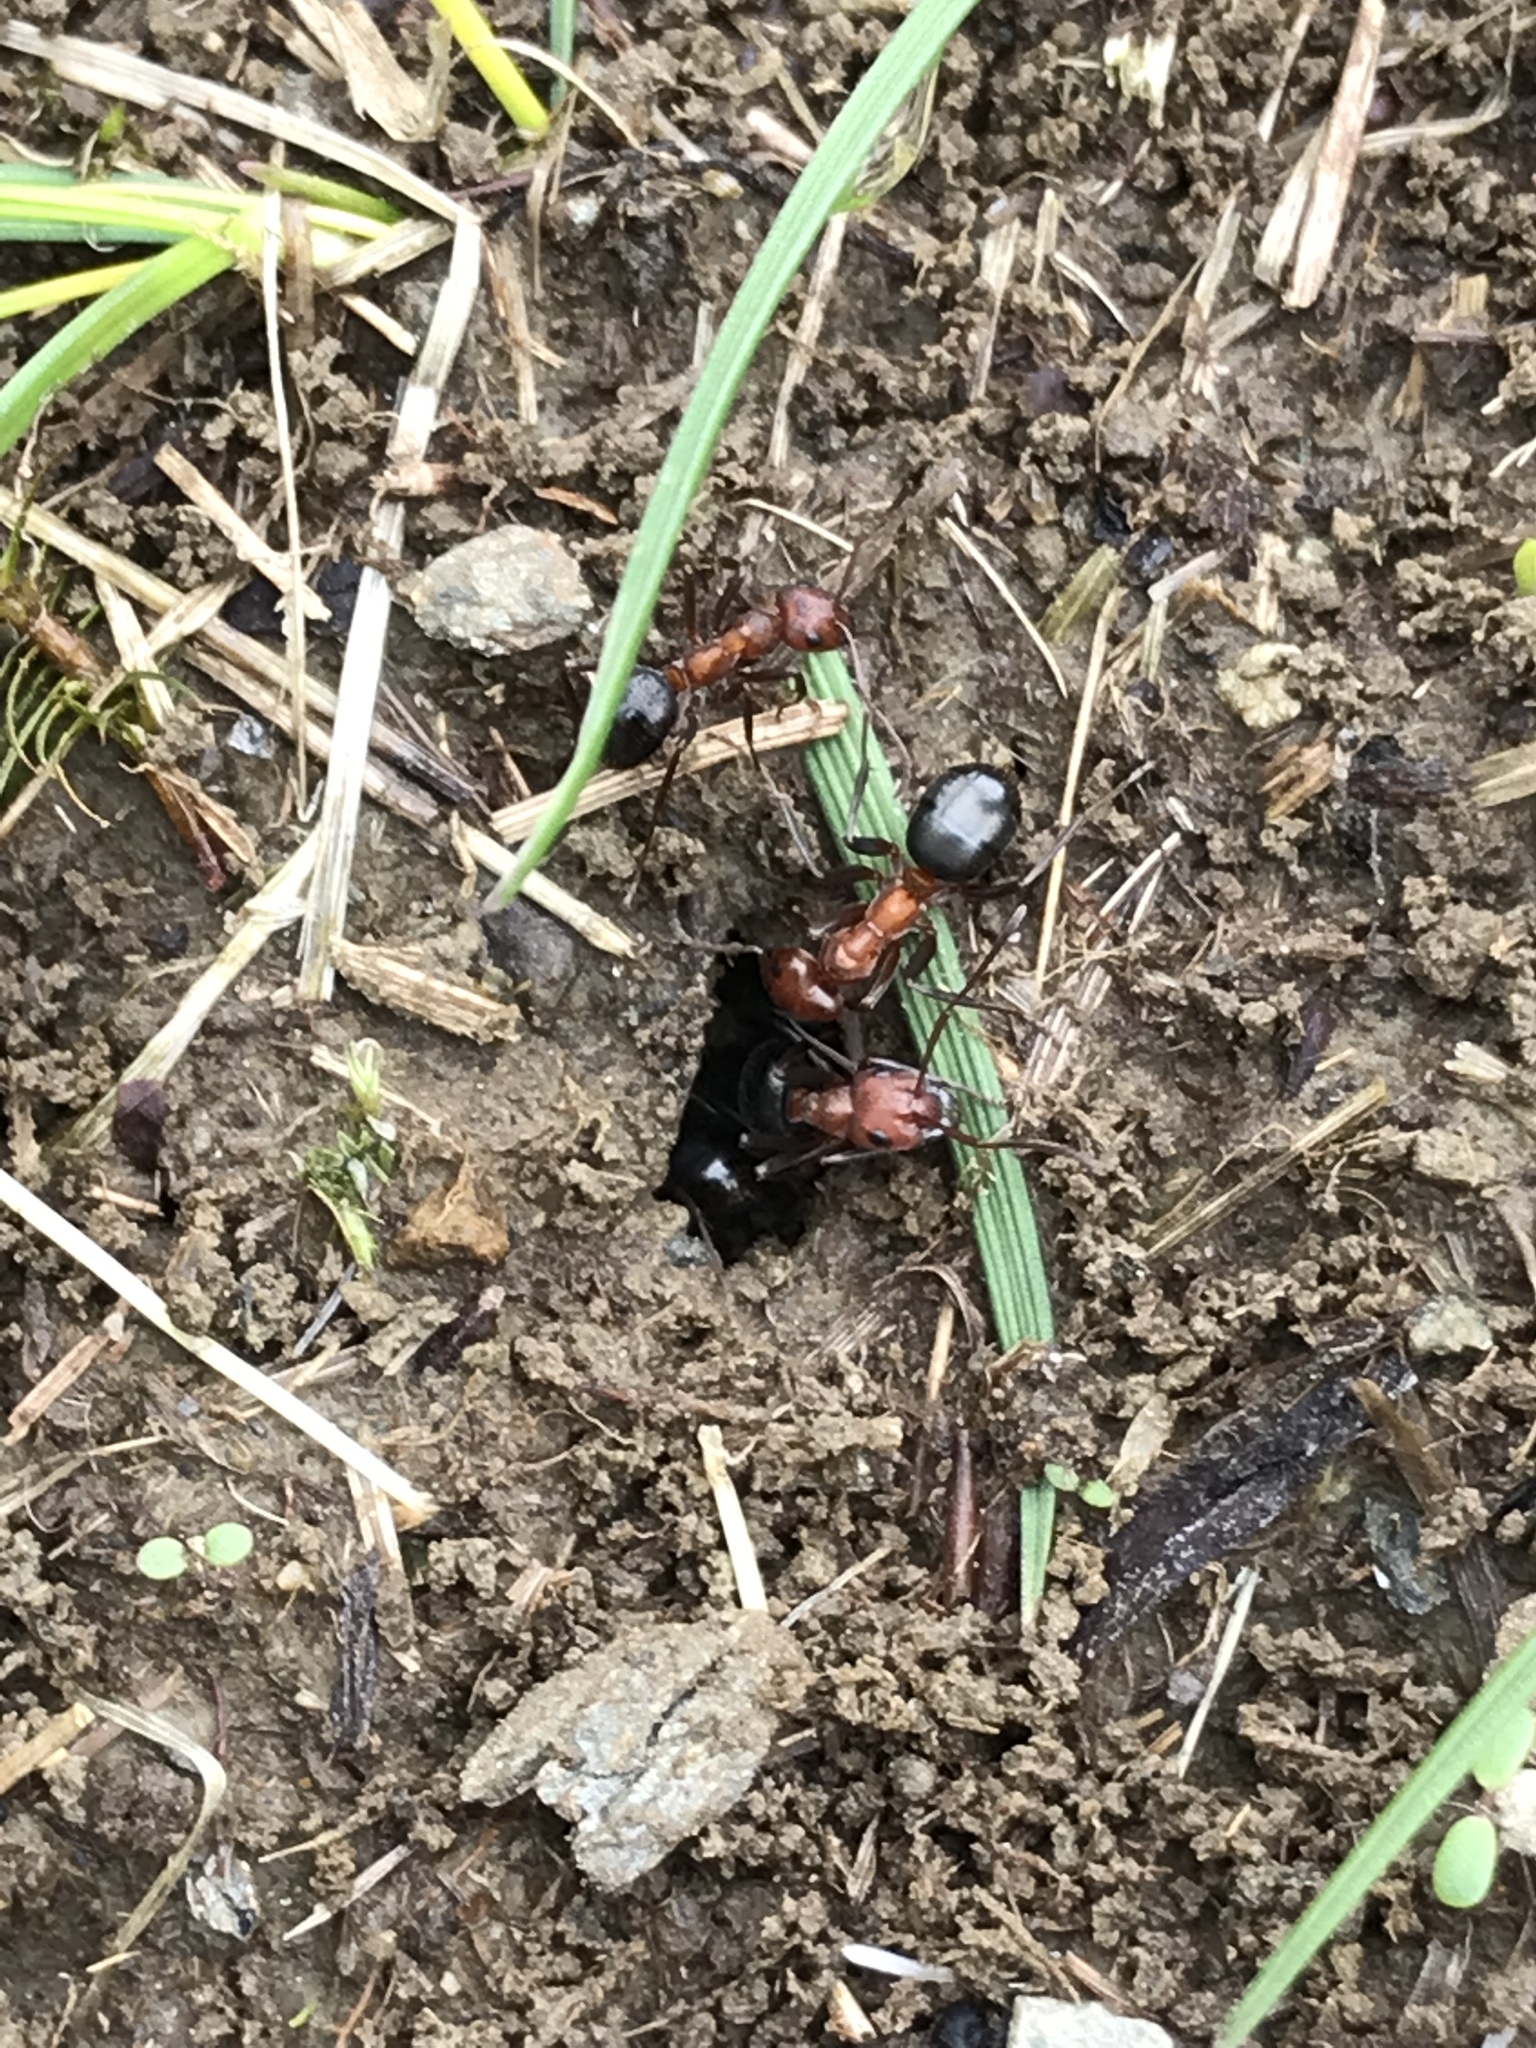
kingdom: Animalia
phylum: Arthropoda
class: Insecta
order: Hymenoptera
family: Formicidae
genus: Formica
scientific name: Formica exsectoides
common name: Allegheny mound ant
